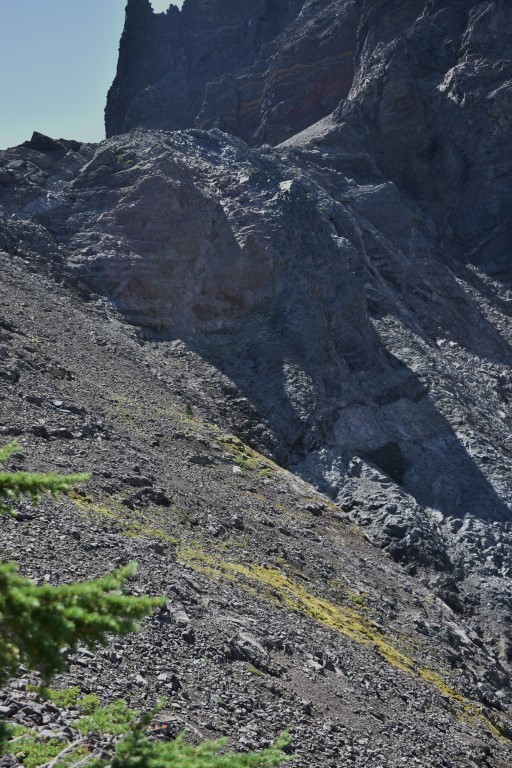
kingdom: Animalia
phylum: Chordata
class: Mammalia
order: Artiodactyla
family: Bovidae
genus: Oreamnos
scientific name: Oreamnos americanus
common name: Mountain goat
